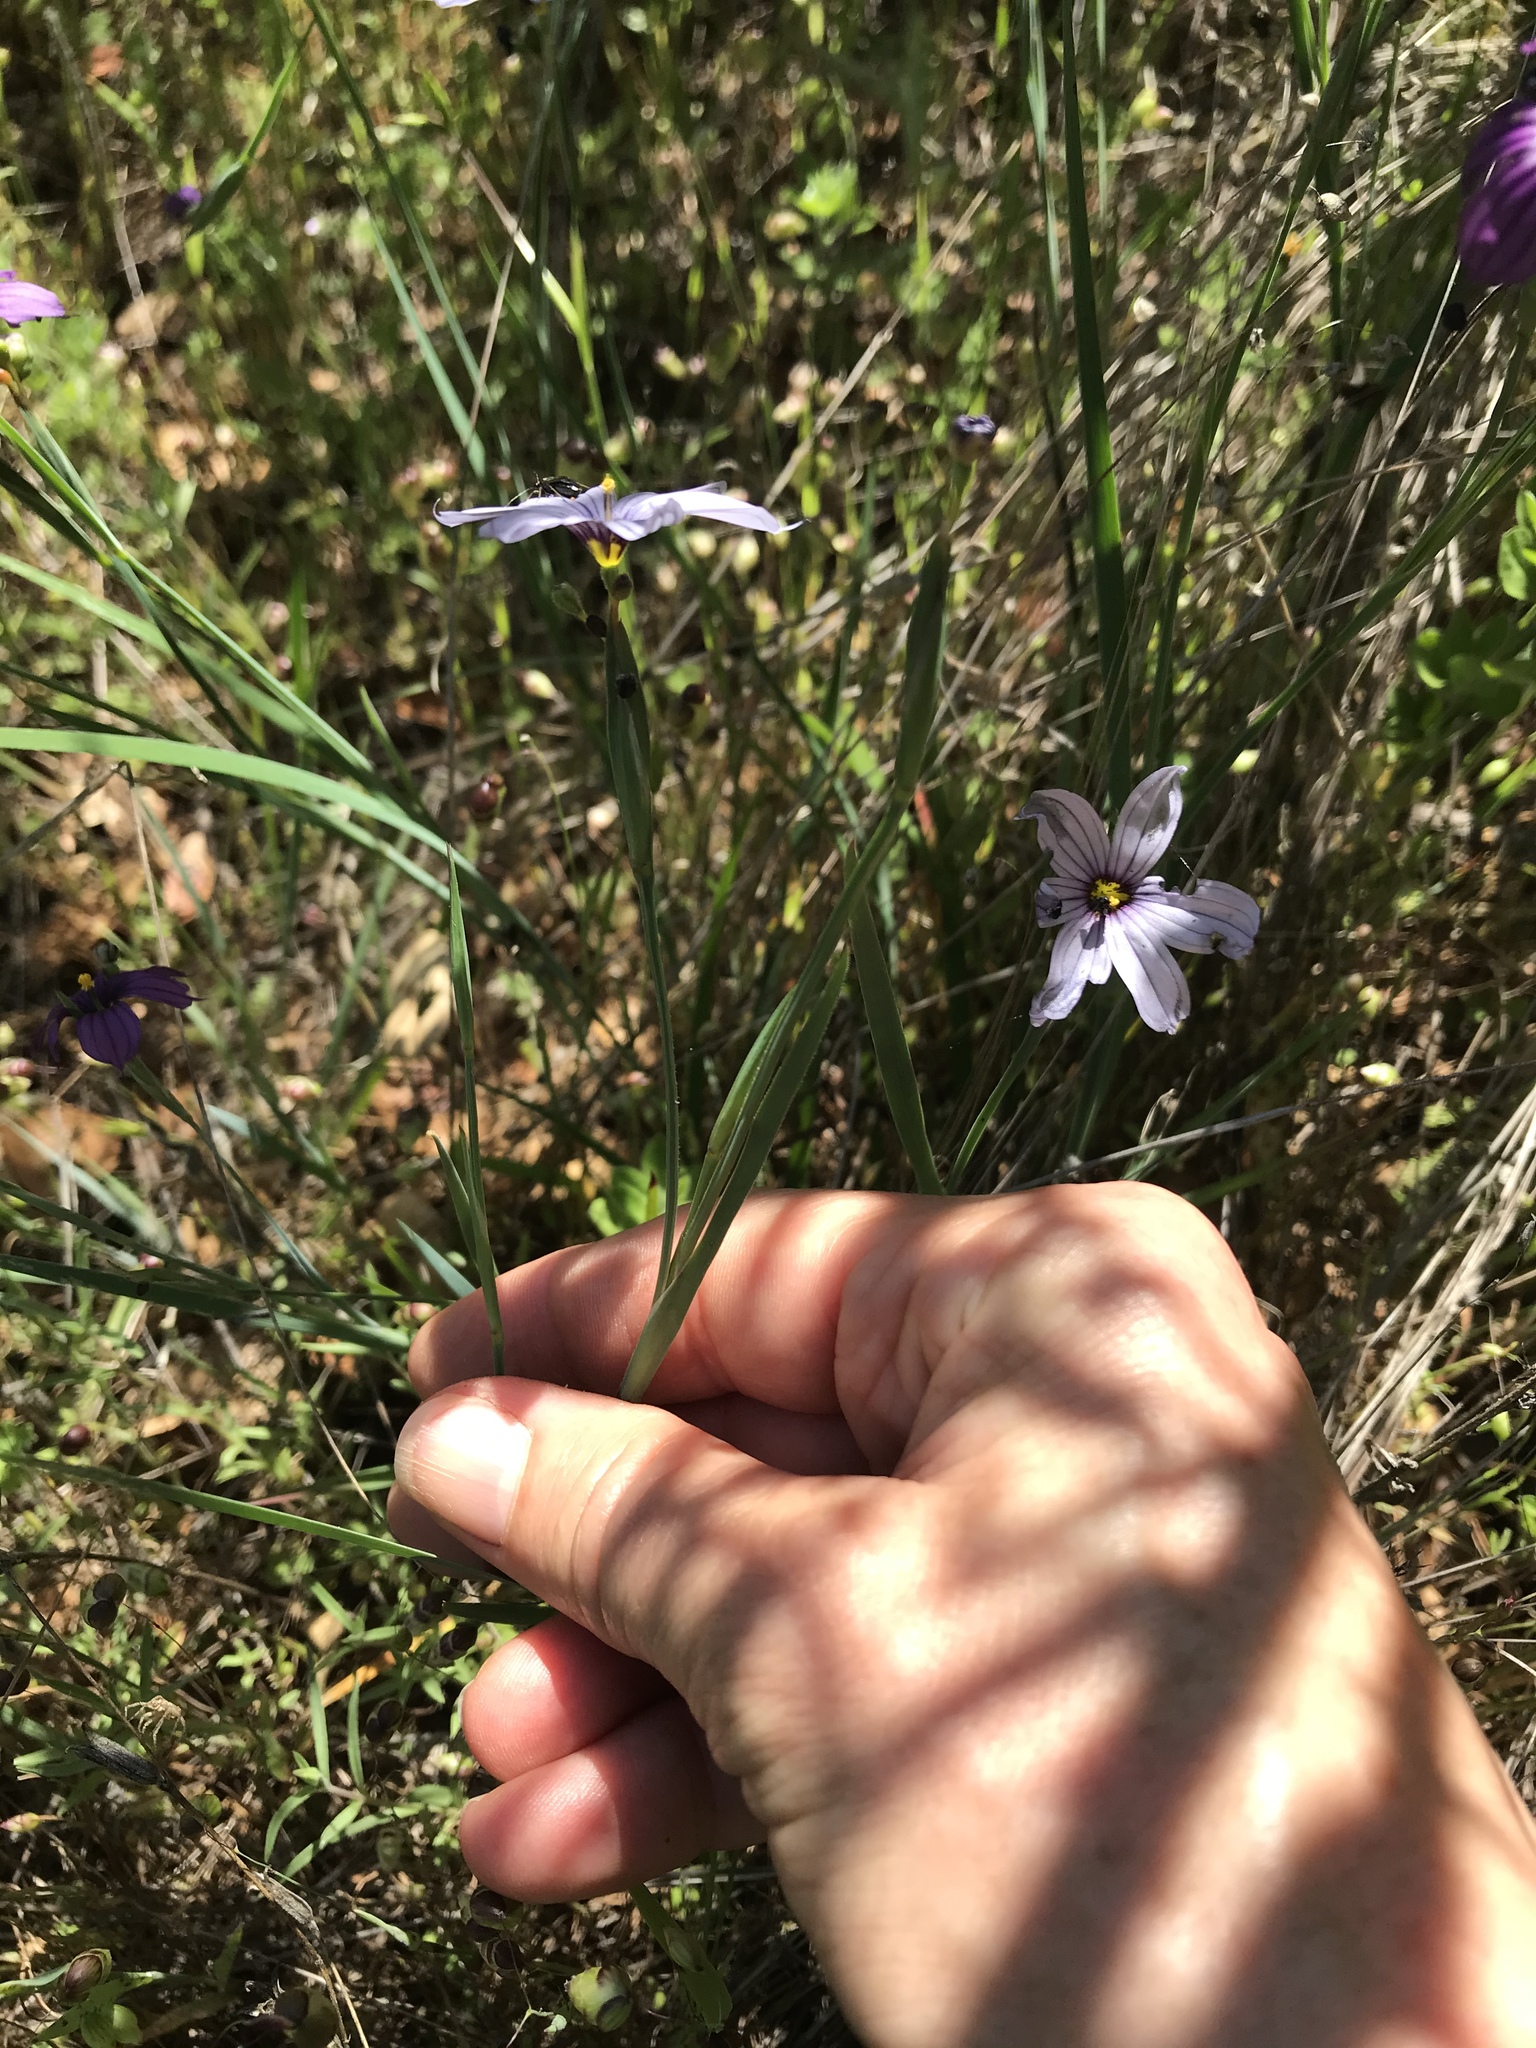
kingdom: Plantae
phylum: Tracheophyta
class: Liliopsida
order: Asparagales
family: Iridaceae
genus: Sisyrinchium
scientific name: Sisyrinchium bellum
